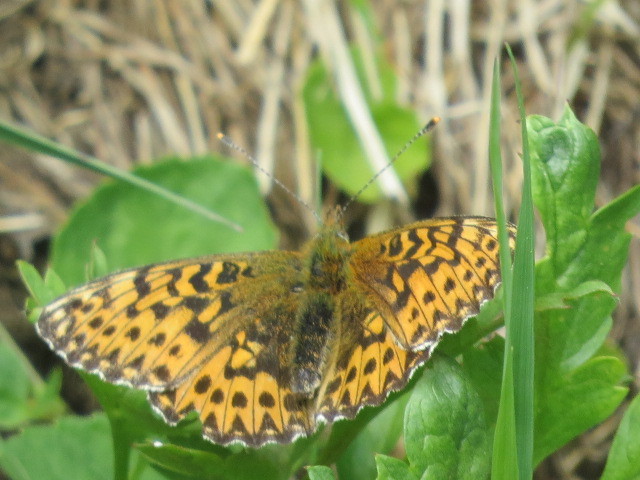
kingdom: Animalia
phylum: Arthropoda
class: Insecta
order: Lepidoptera
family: Nymphalidae
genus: Boloria
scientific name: Boloria titania
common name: Titania's fritillary
